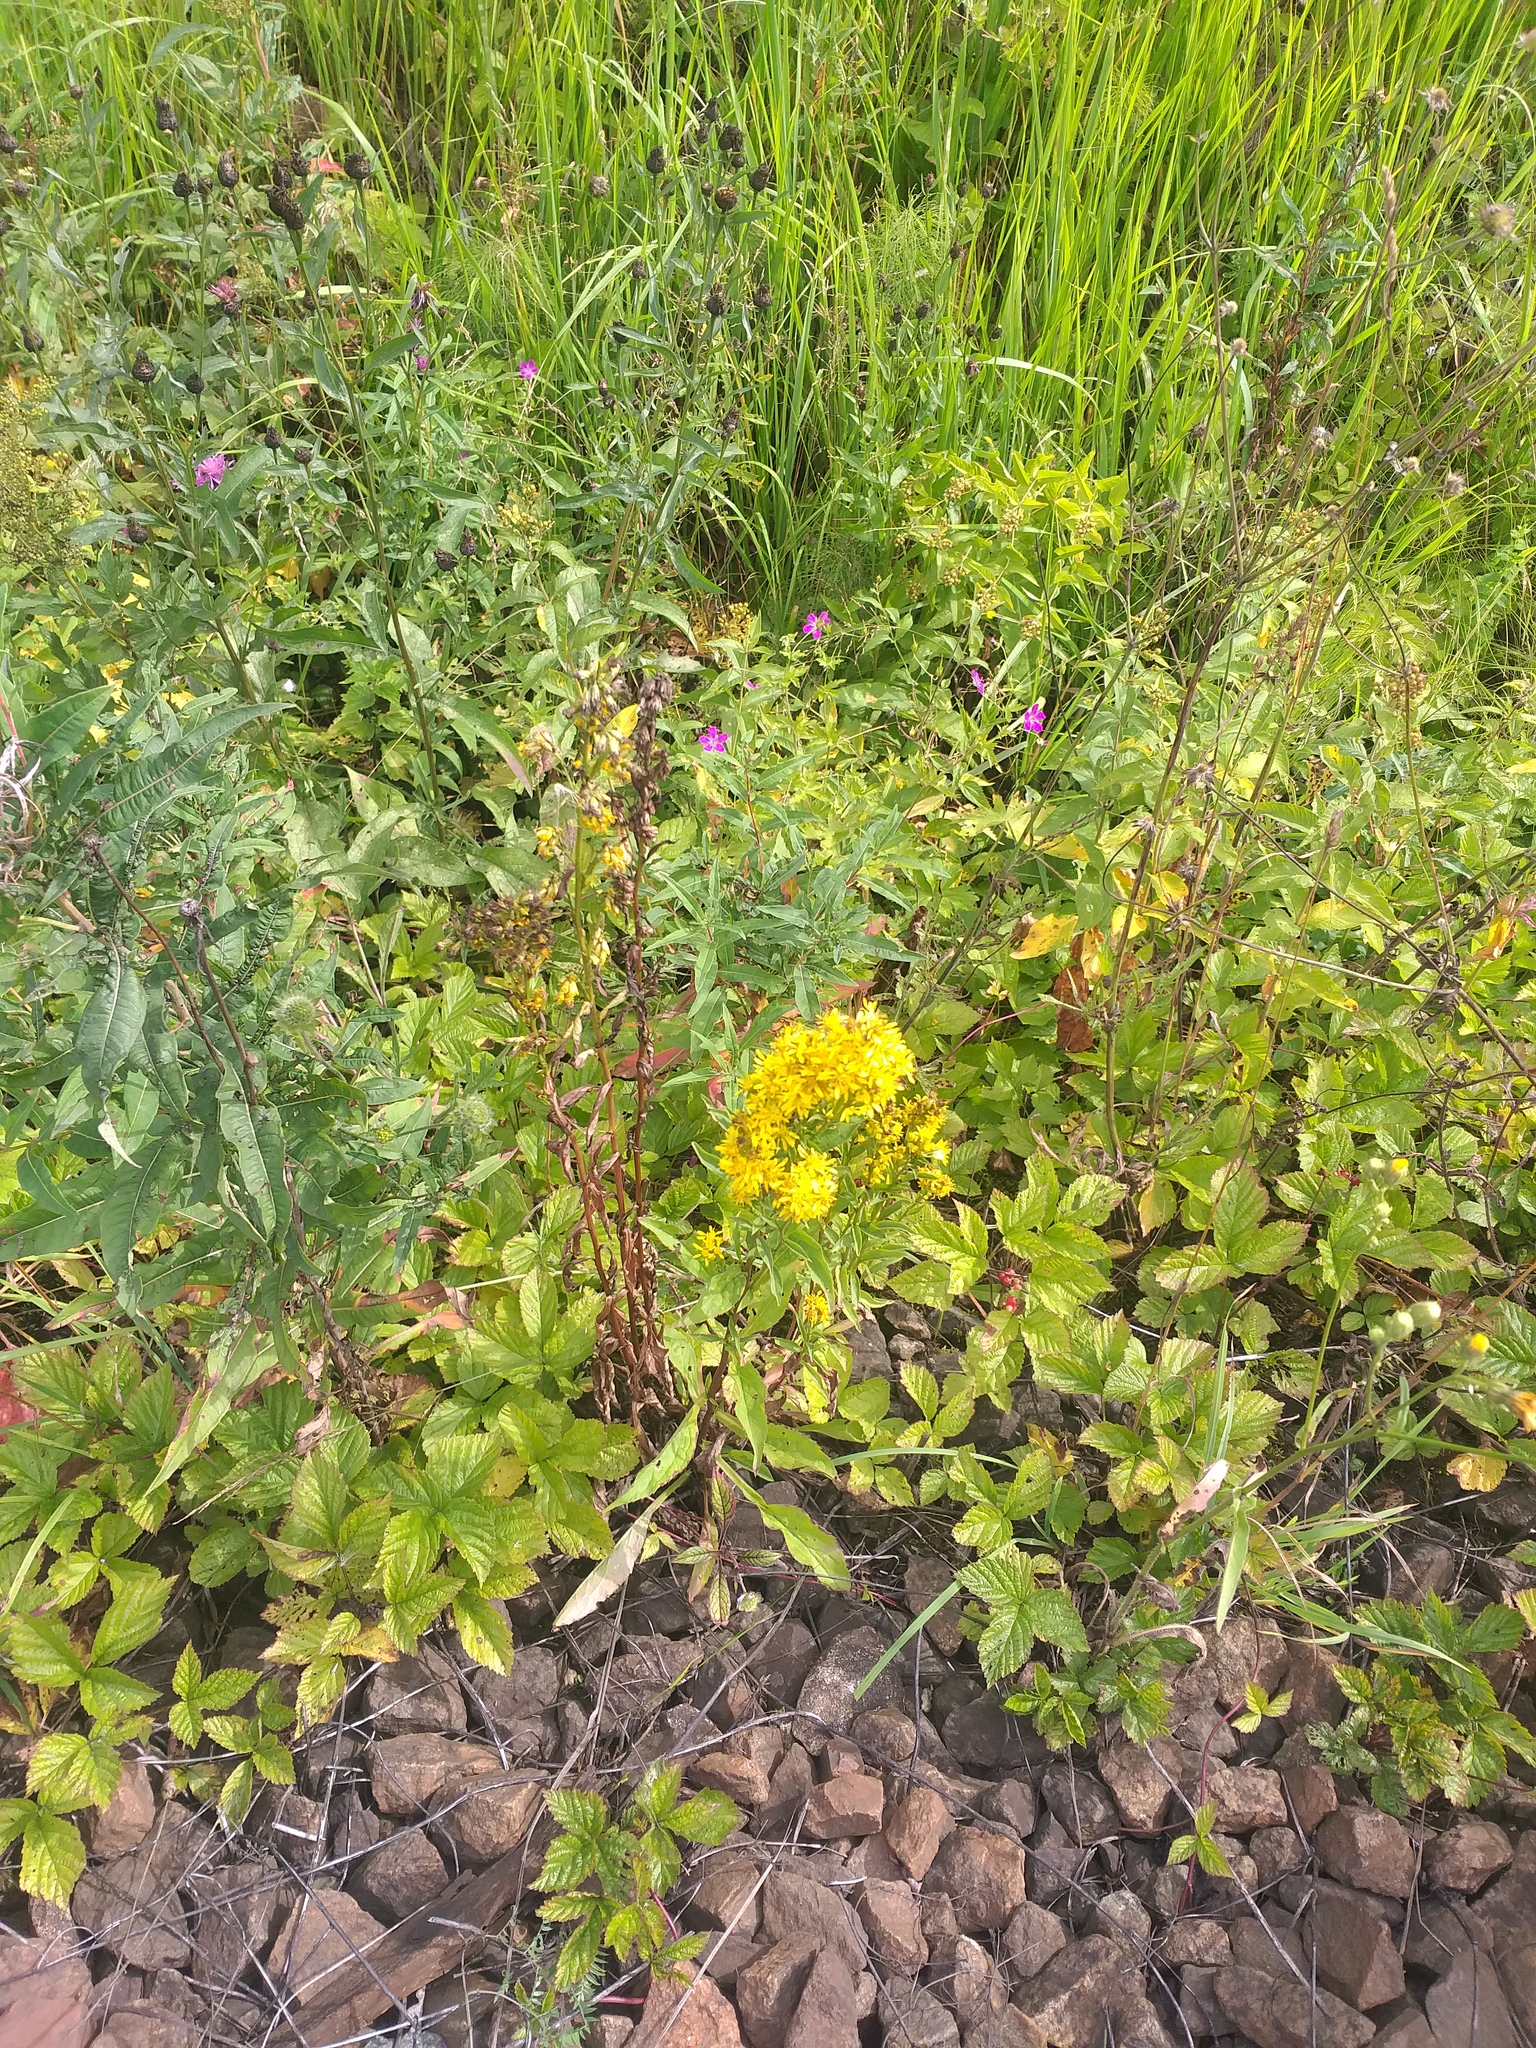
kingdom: Plantae
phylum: Tracheophyta
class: Magnoliopsida
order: Asterales
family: Asteraceae
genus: Solidago
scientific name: Solidago virgaurea
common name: Goldenrod
